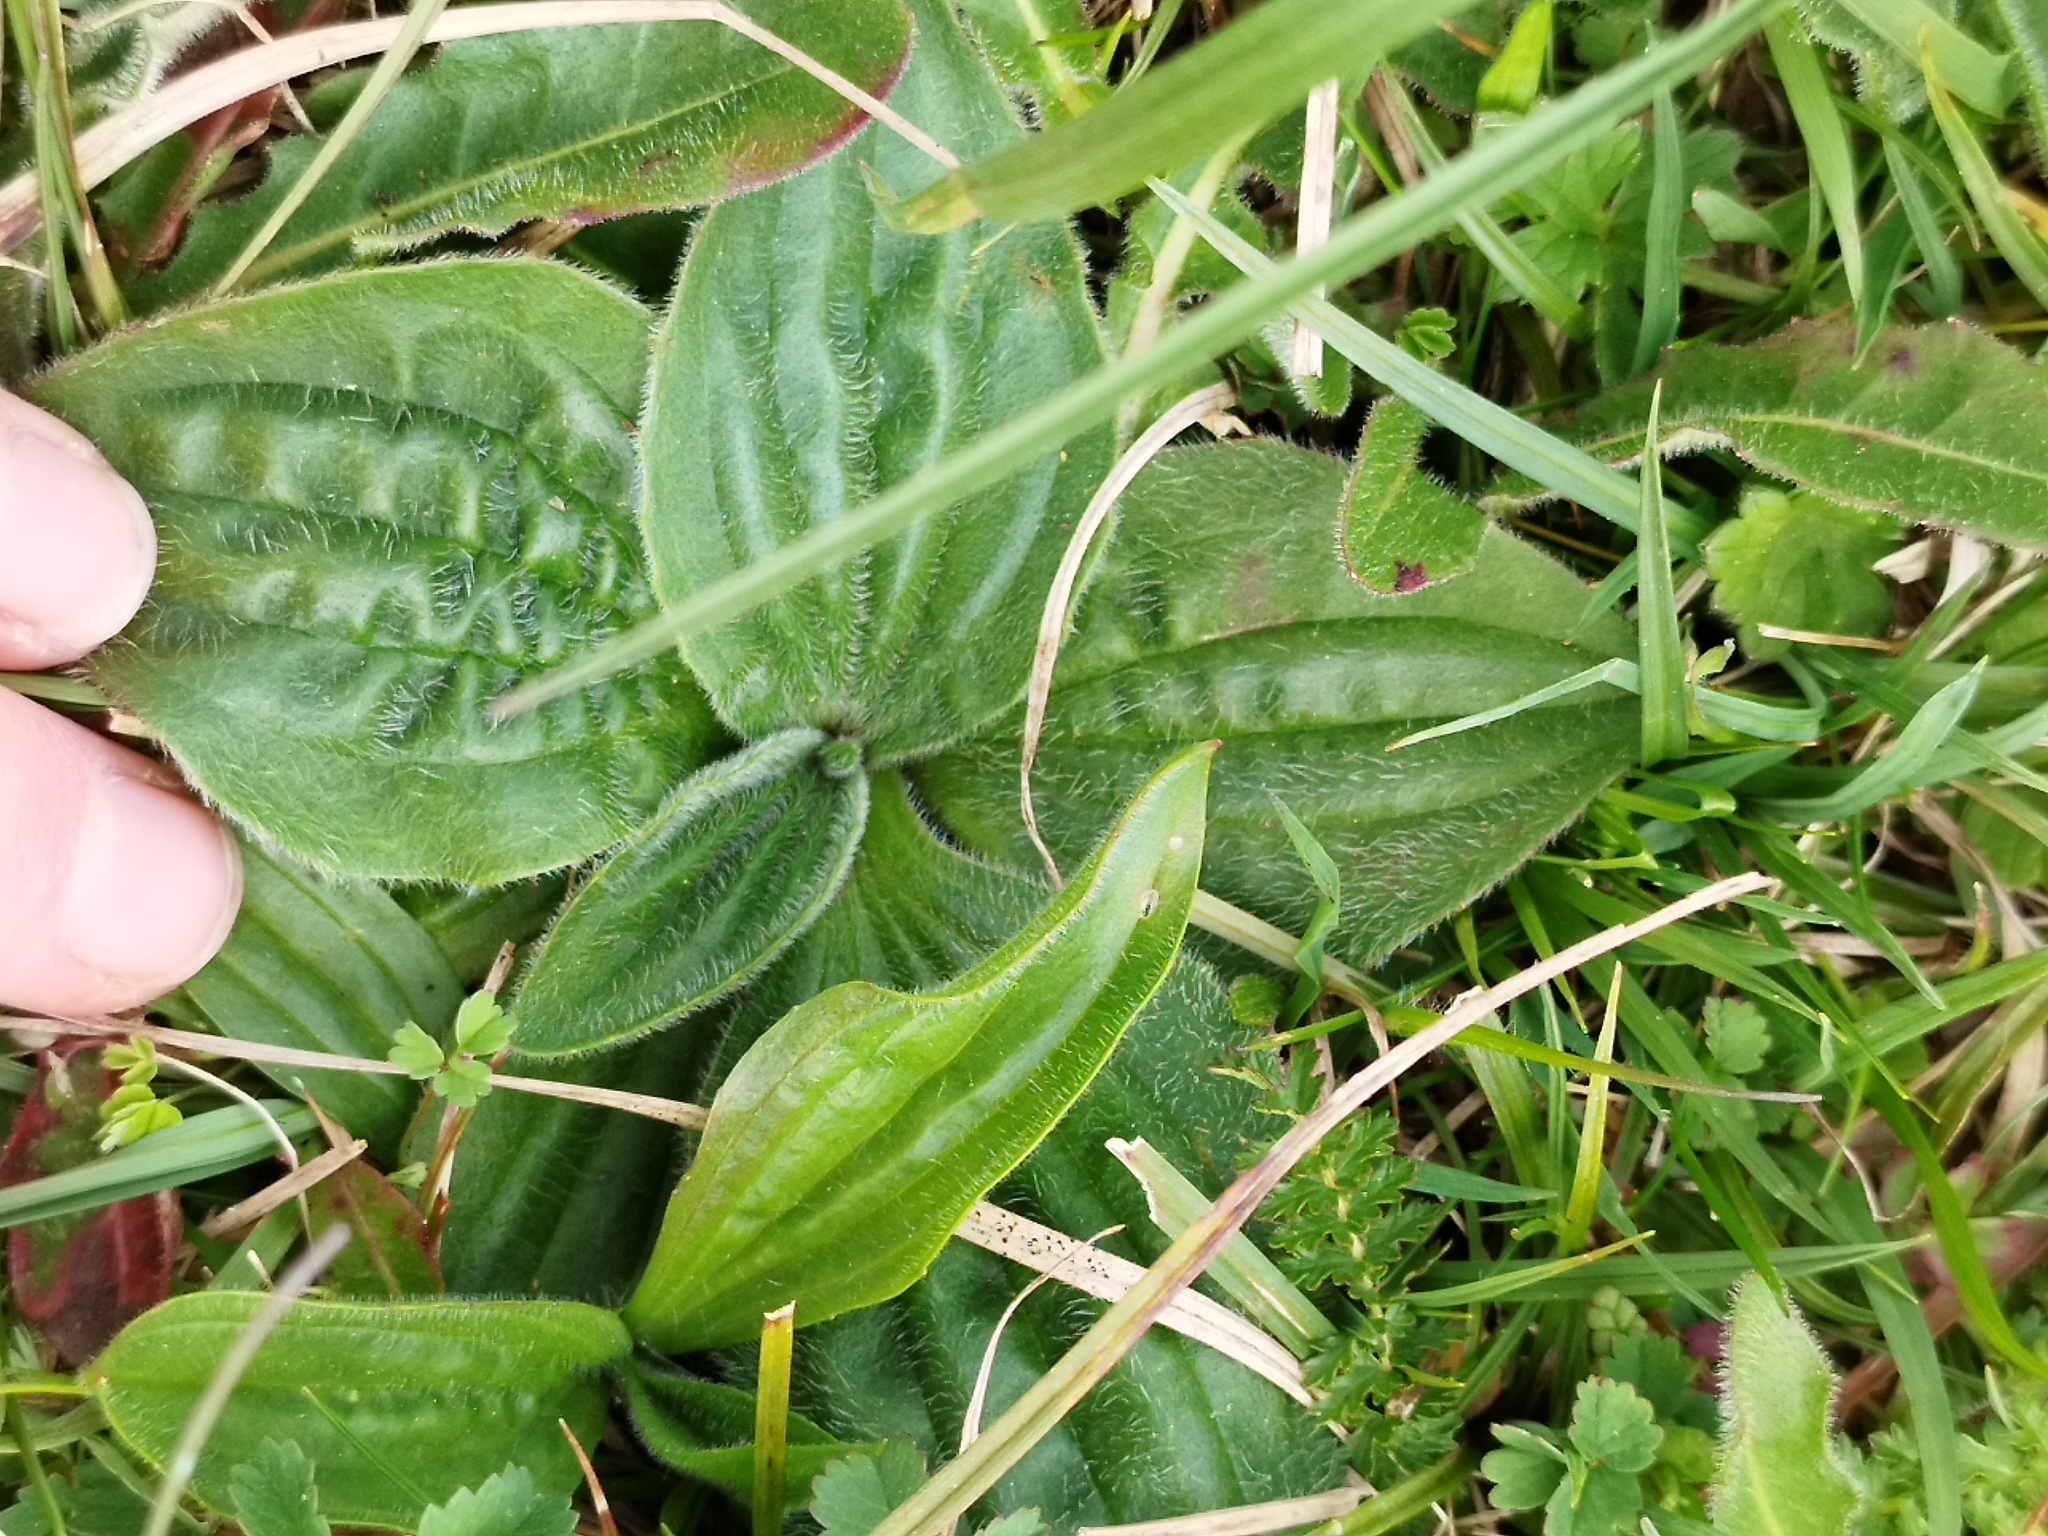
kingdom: Plantae
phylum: Tracheophyta
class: Magnoliopsida
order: Lamiales
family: Plantaginaceae
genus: Plantago
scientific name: Plantago media
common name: Hoary plantain
